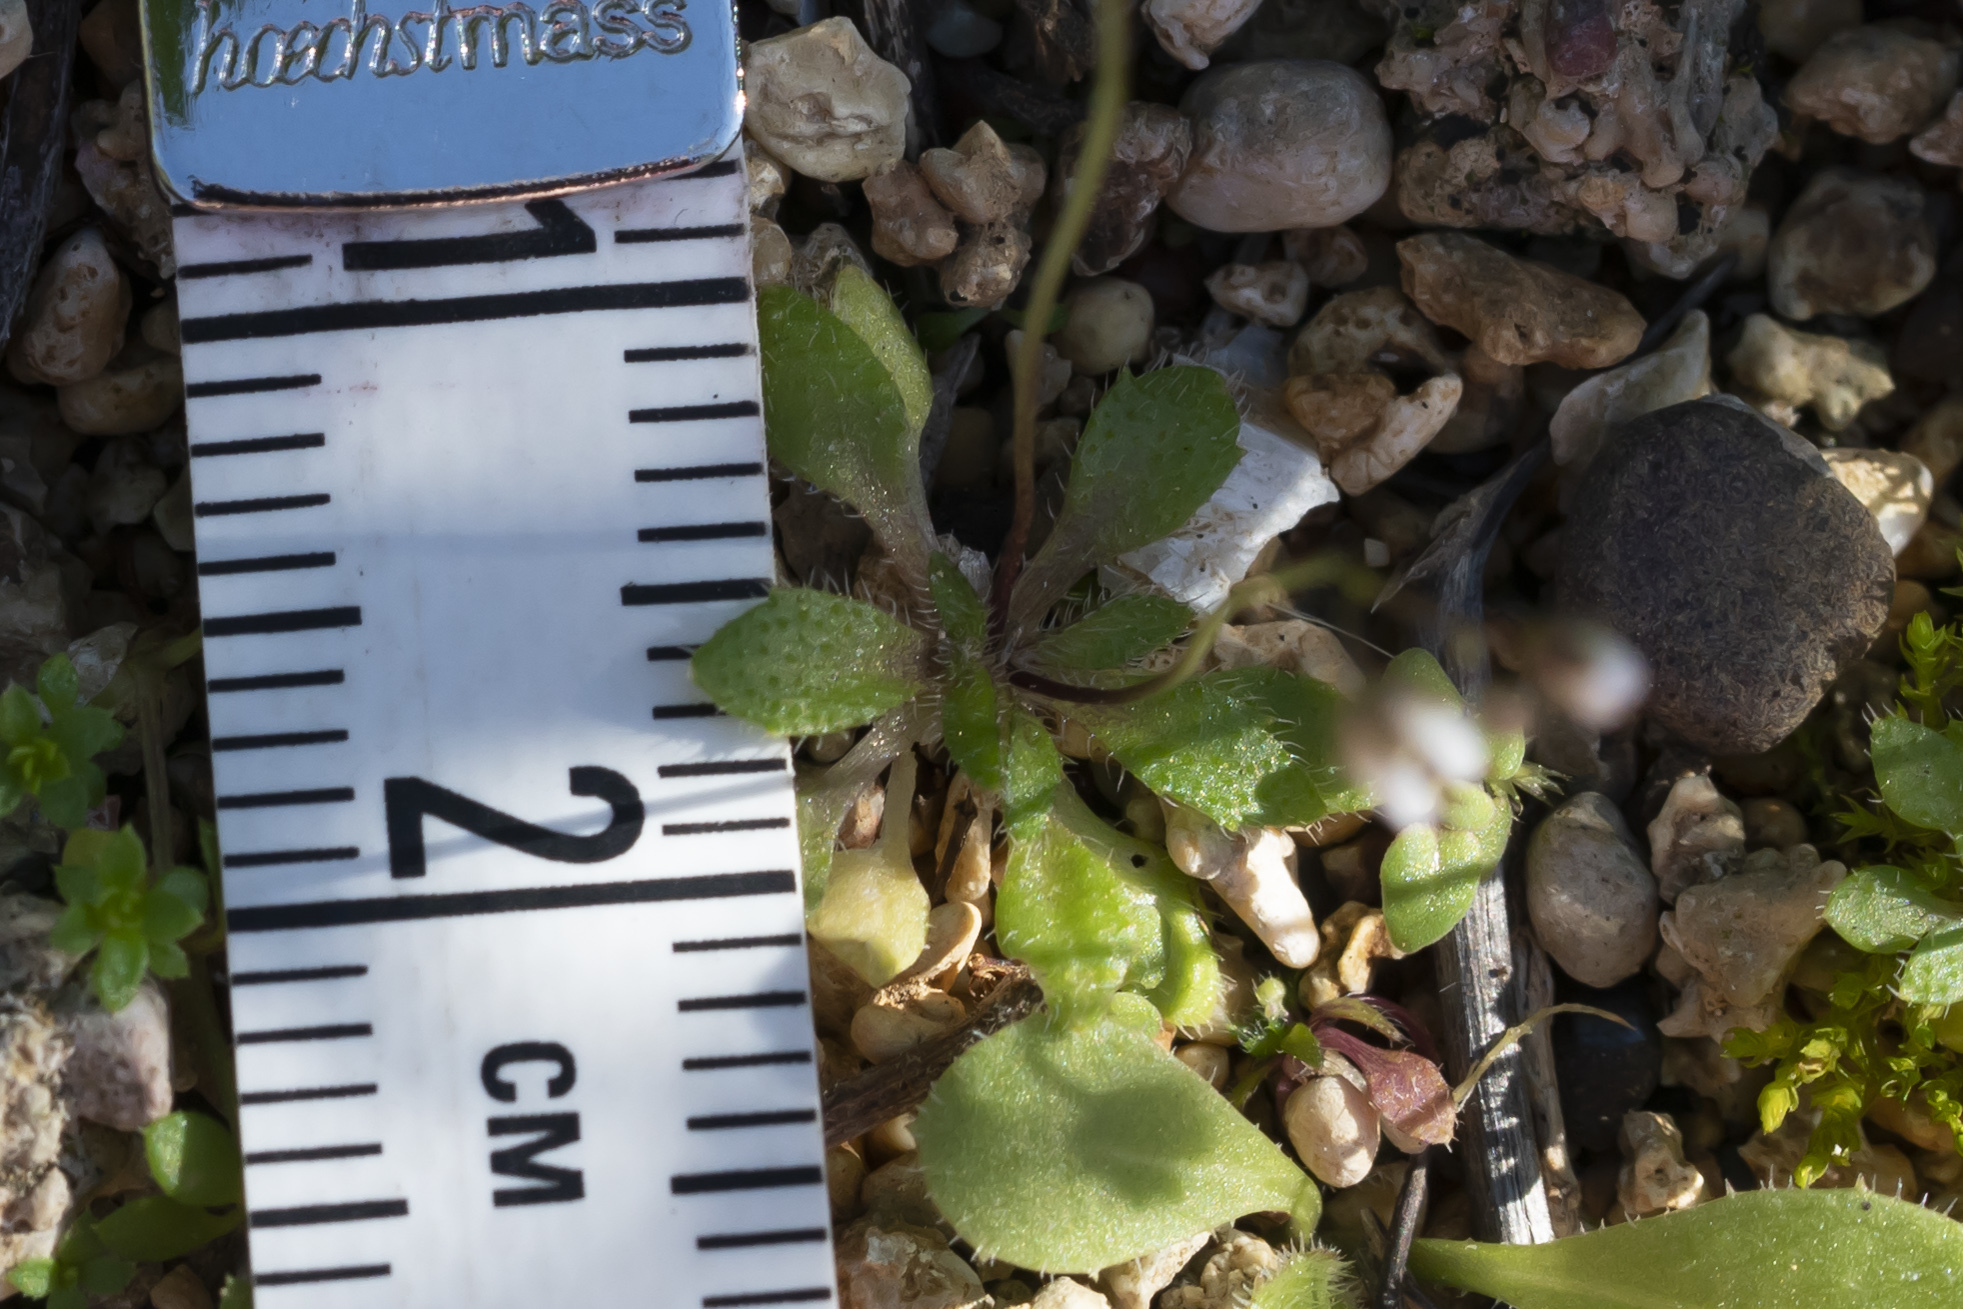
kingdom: Plantae
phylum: Tracheophyta
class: Magnoliopsida
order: Brassicales
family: Brassicaceae
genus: Draba
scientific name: Draba verna
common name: Spring draba
